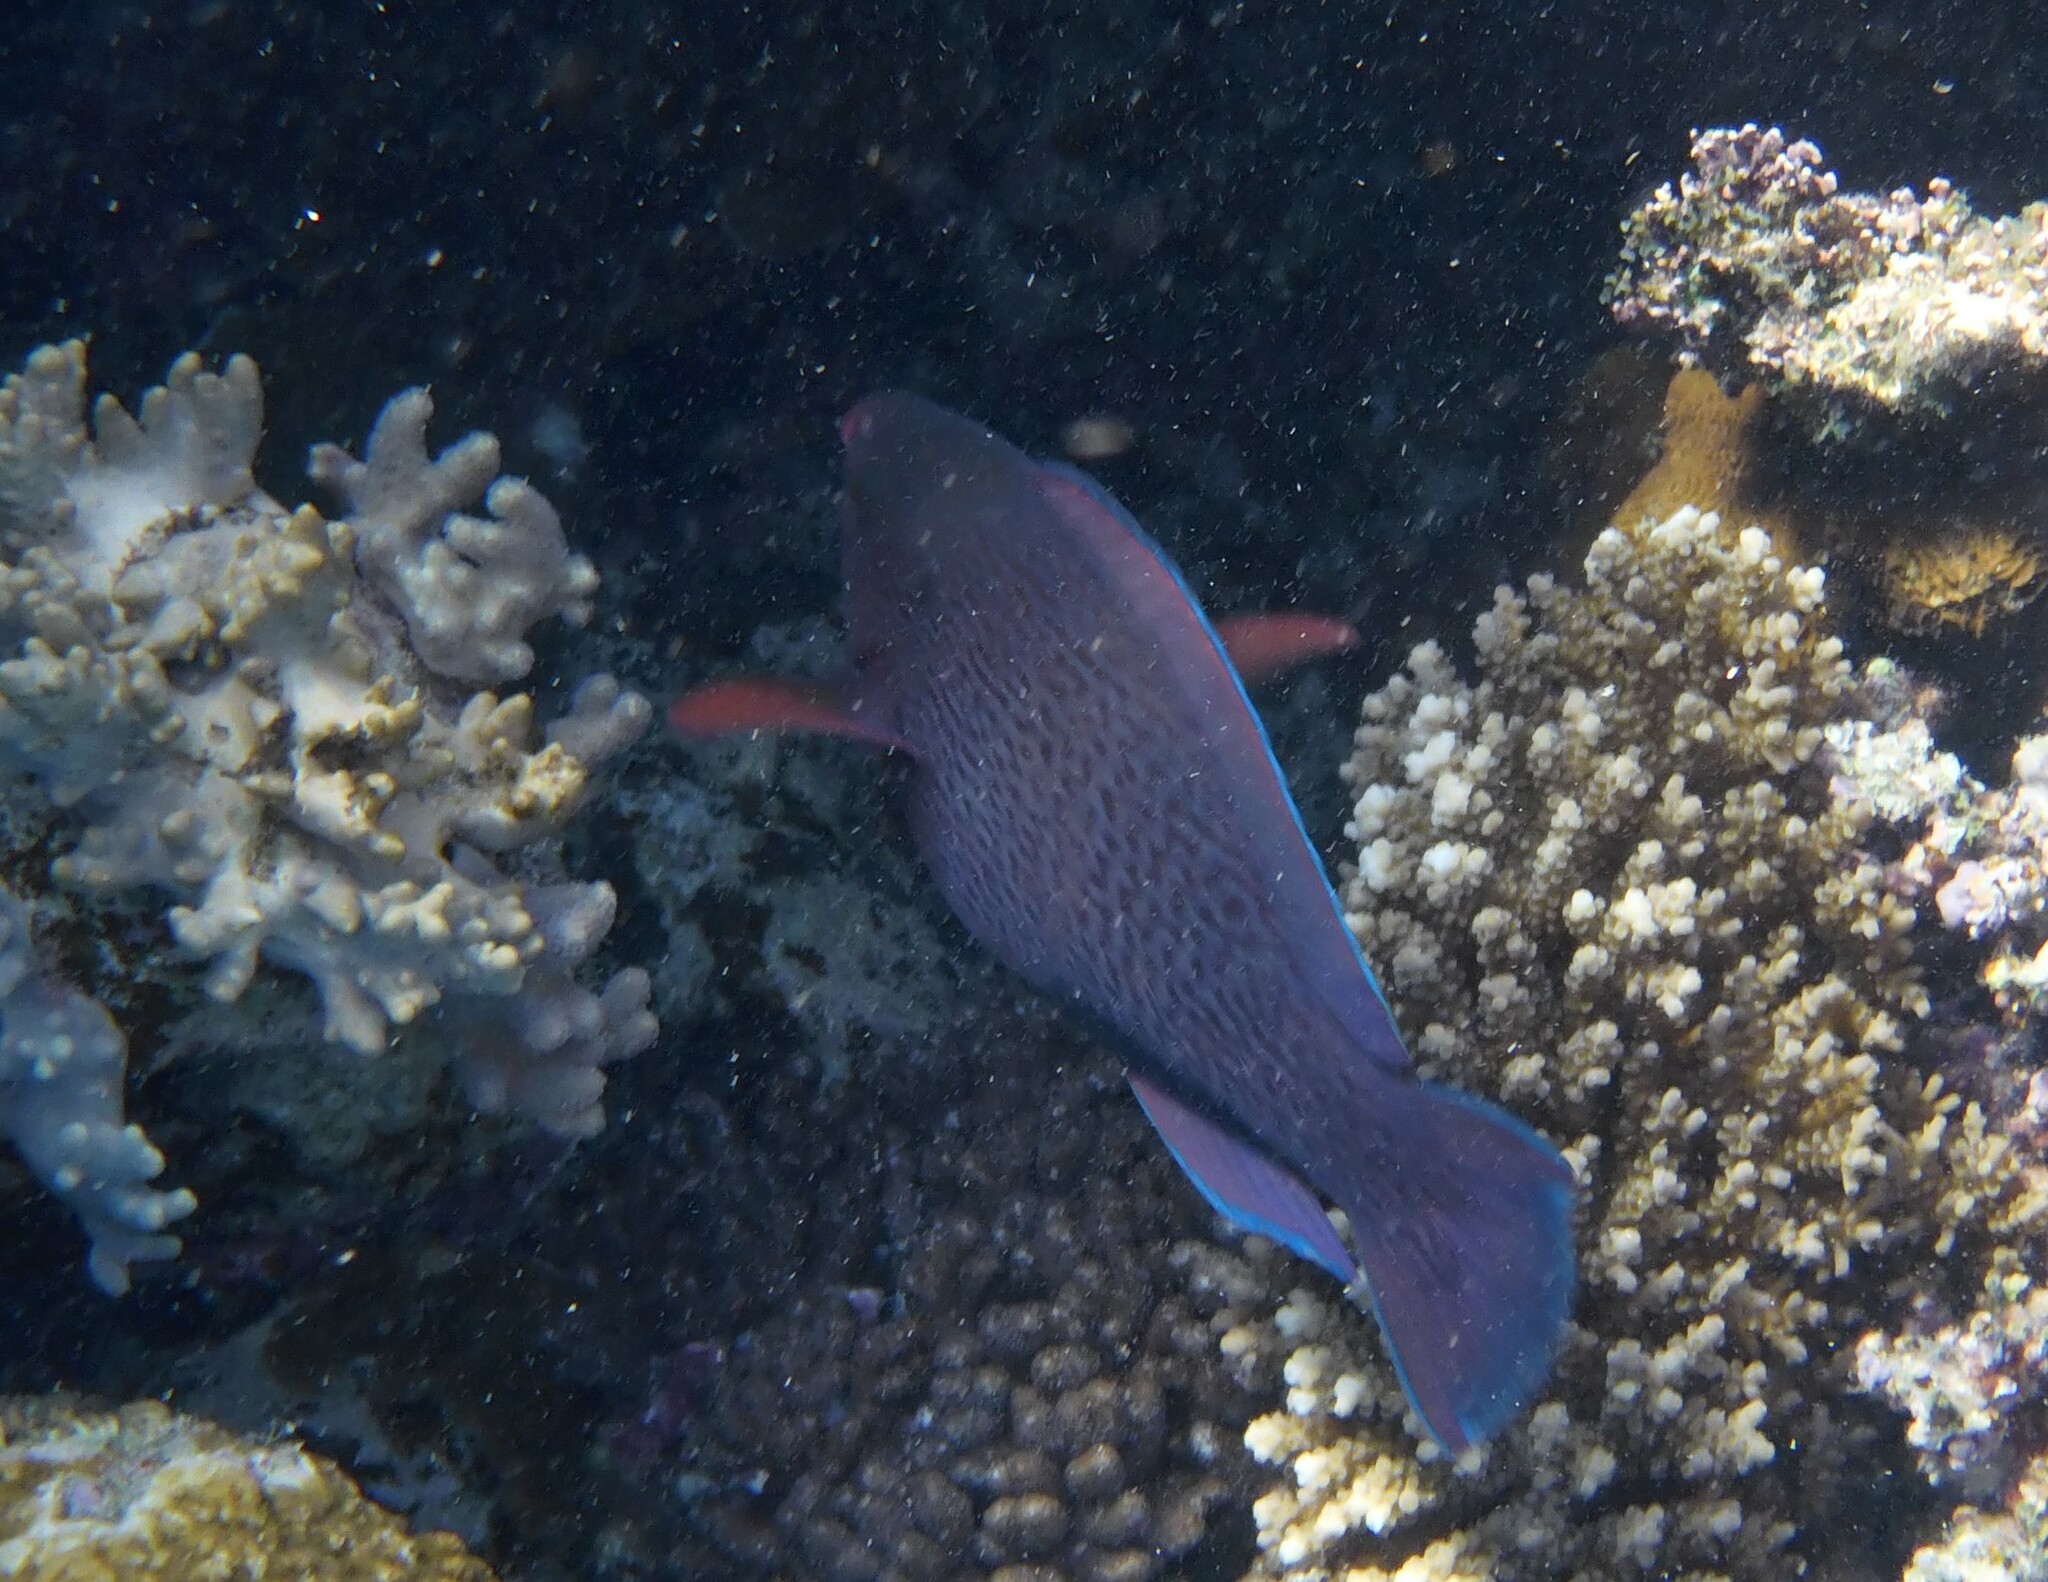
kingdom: Animalia
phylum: Chordata
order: Perciformes
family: Scaridae
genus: Scarus
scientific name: Scarus niger
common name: Dusky parrotfish
